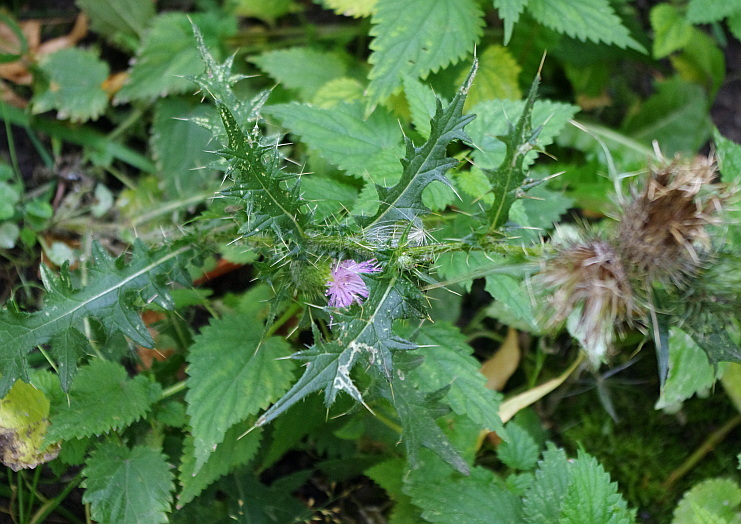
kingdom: Plantae
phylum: Tracheophyta
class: Magnoliopsida
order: Asterales
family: Asteraceae
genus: Cirsium
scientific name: Cirsium vulgare
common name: Bull thistle
